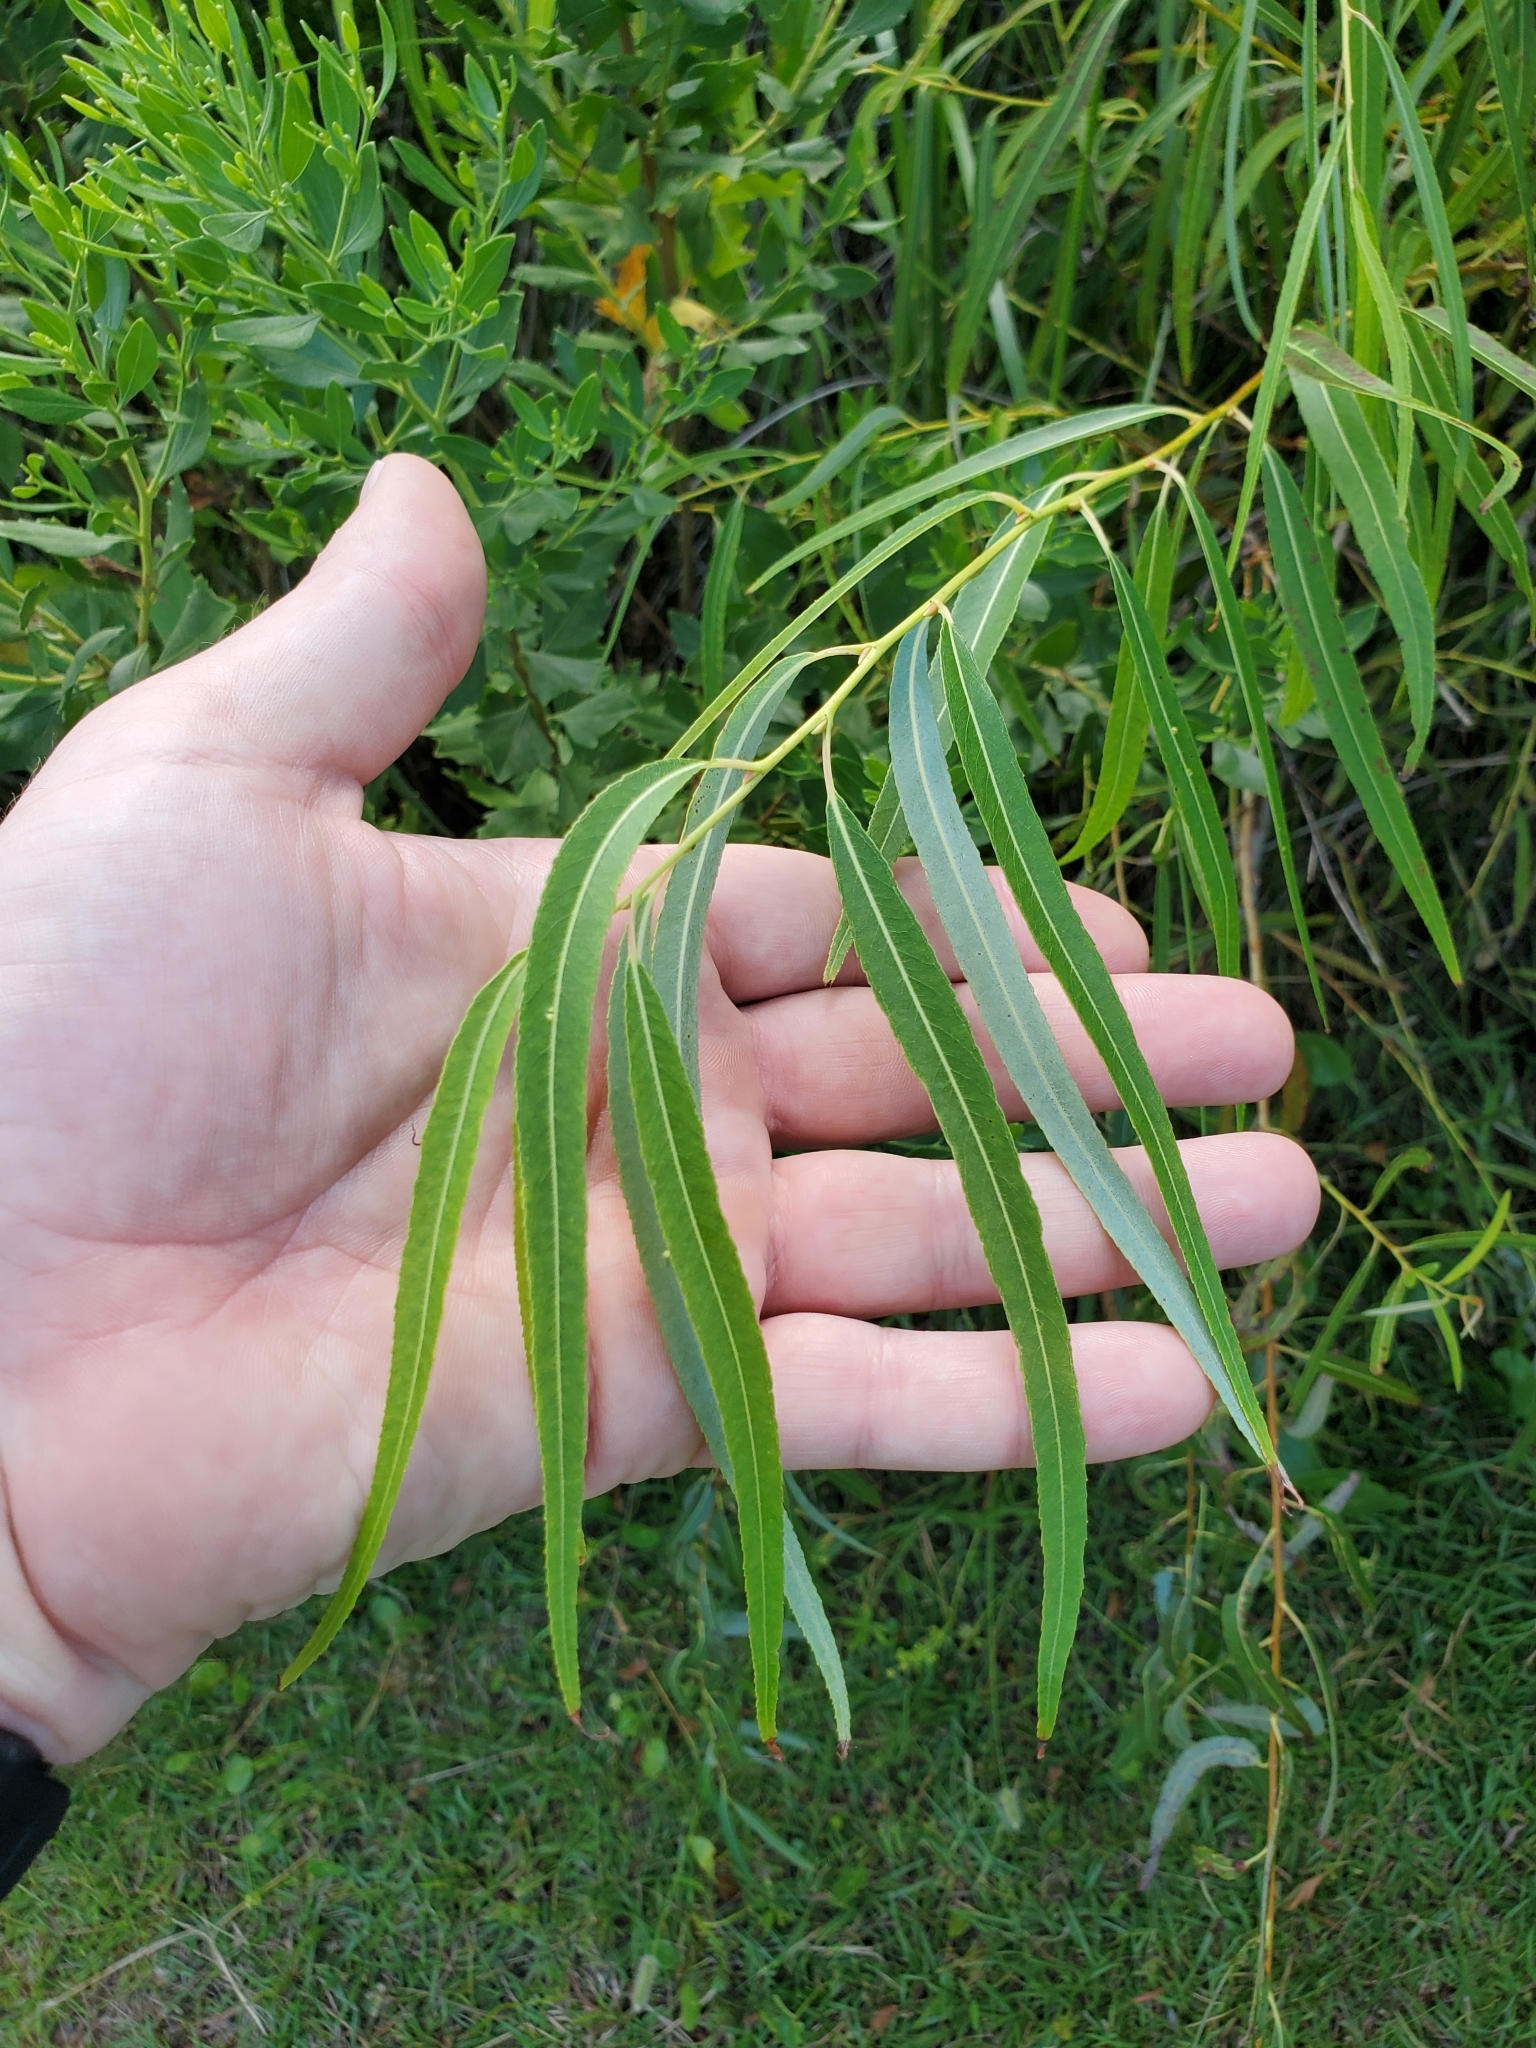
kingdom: Plantae
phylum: Tracheophyta
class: Magnoliopsida
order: Malpighiales
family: Salicaceae
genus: Salix
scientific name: Salix nigra
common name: Black willow
